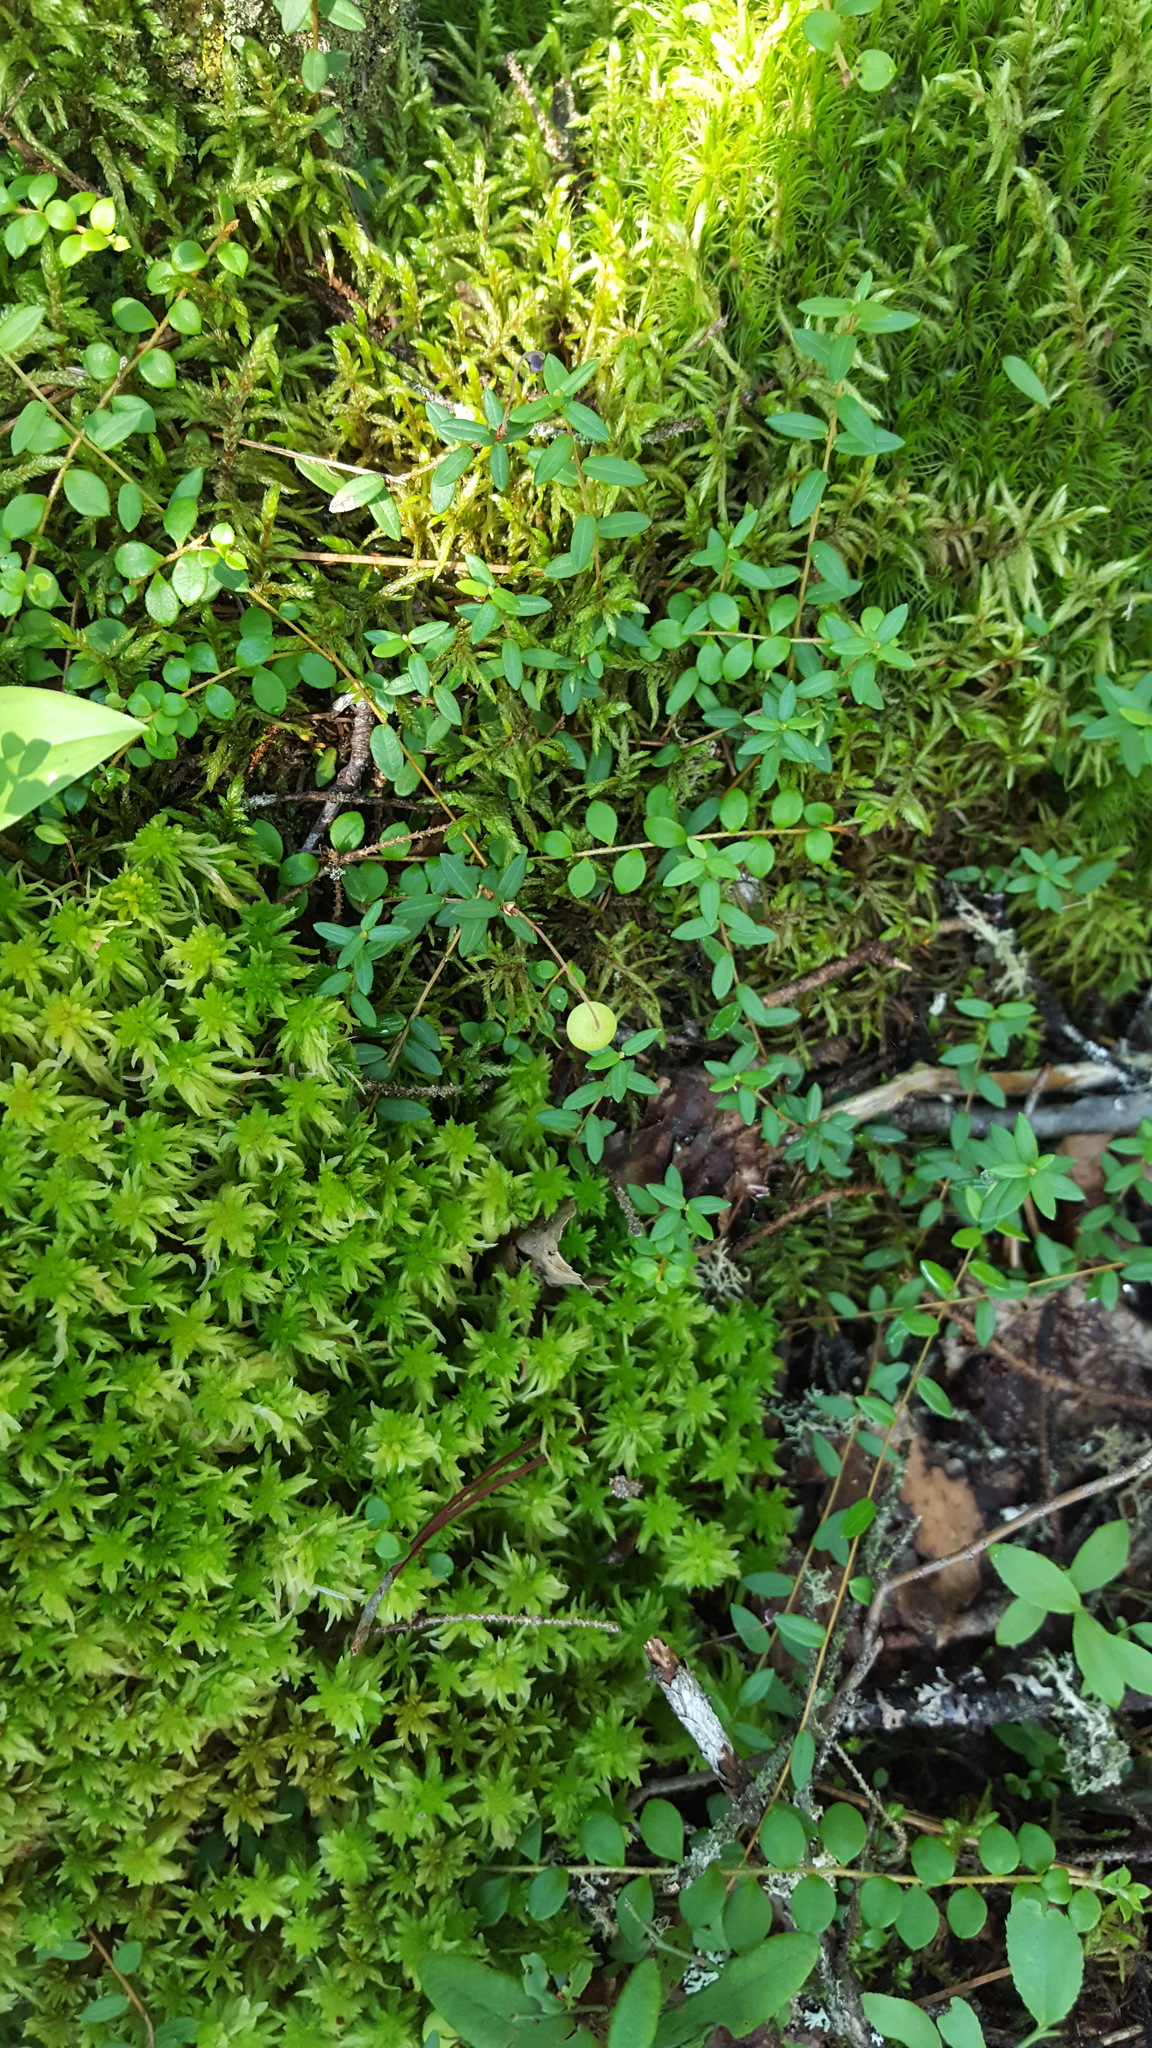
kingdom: Plantae
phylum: Tracheophyta
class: Magnoliopsida
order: Ericales
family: Ericaceae
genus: Vaccinium
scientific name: Vaccinium oxycoccos
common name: Cranberry
